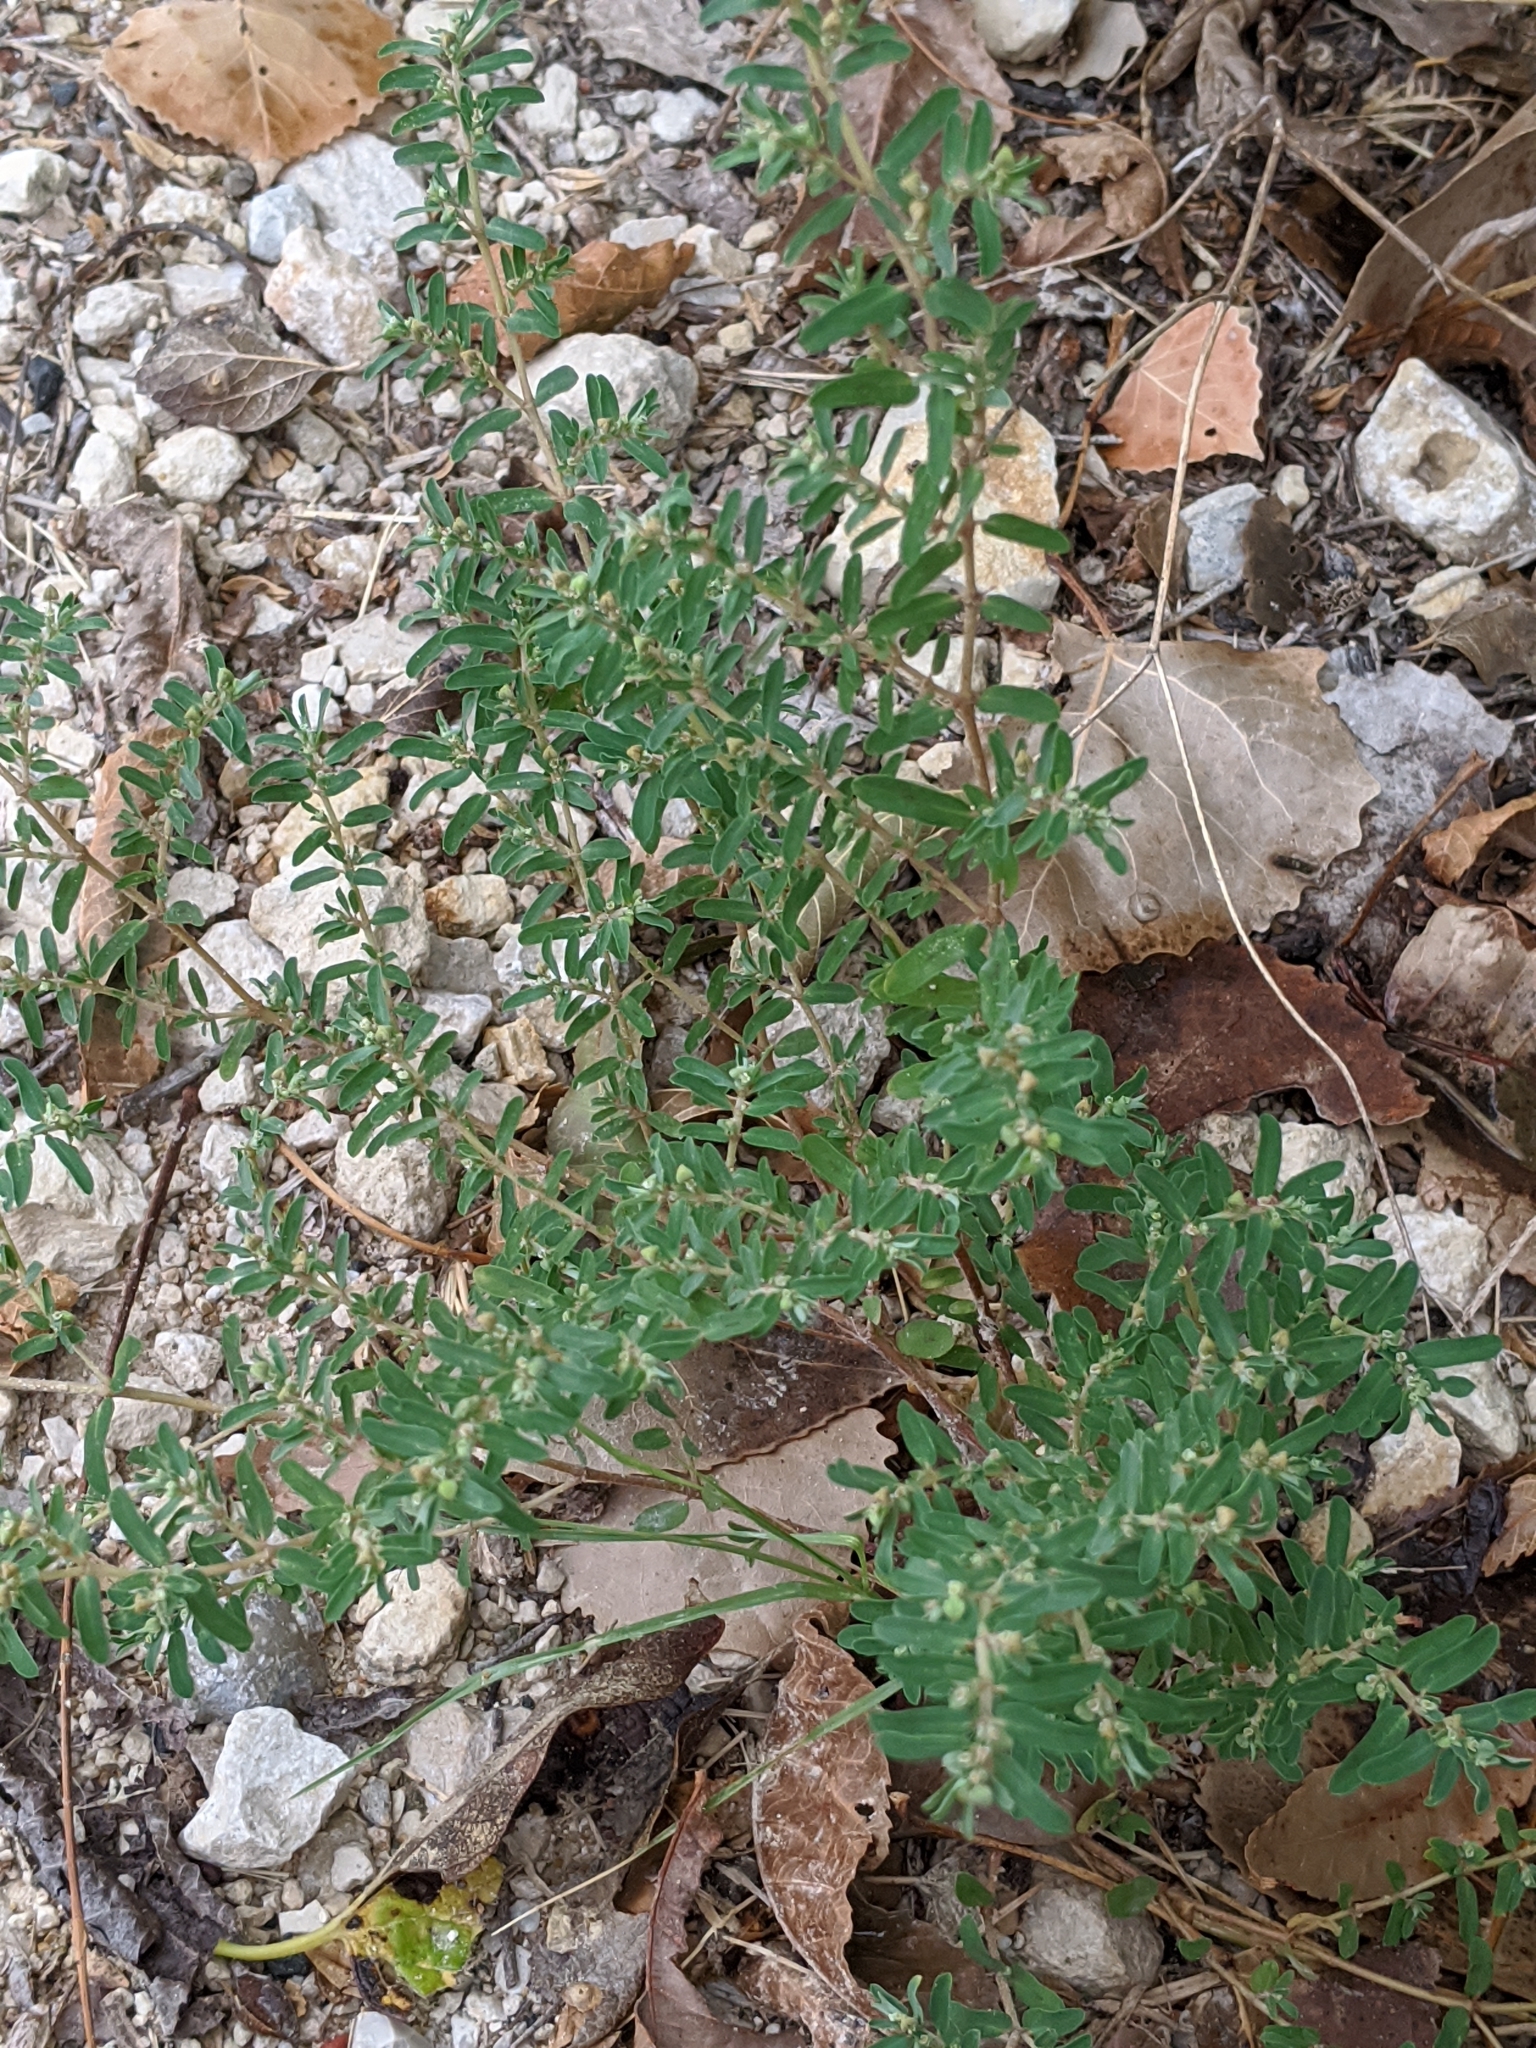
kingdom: Plantae
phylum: Tracheophyta
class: Magnoliopsida
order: Malpighiales
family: Euphorbiaceae
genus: Euphorbia
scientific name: Euphorbia maculata
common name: Spotted spurge
